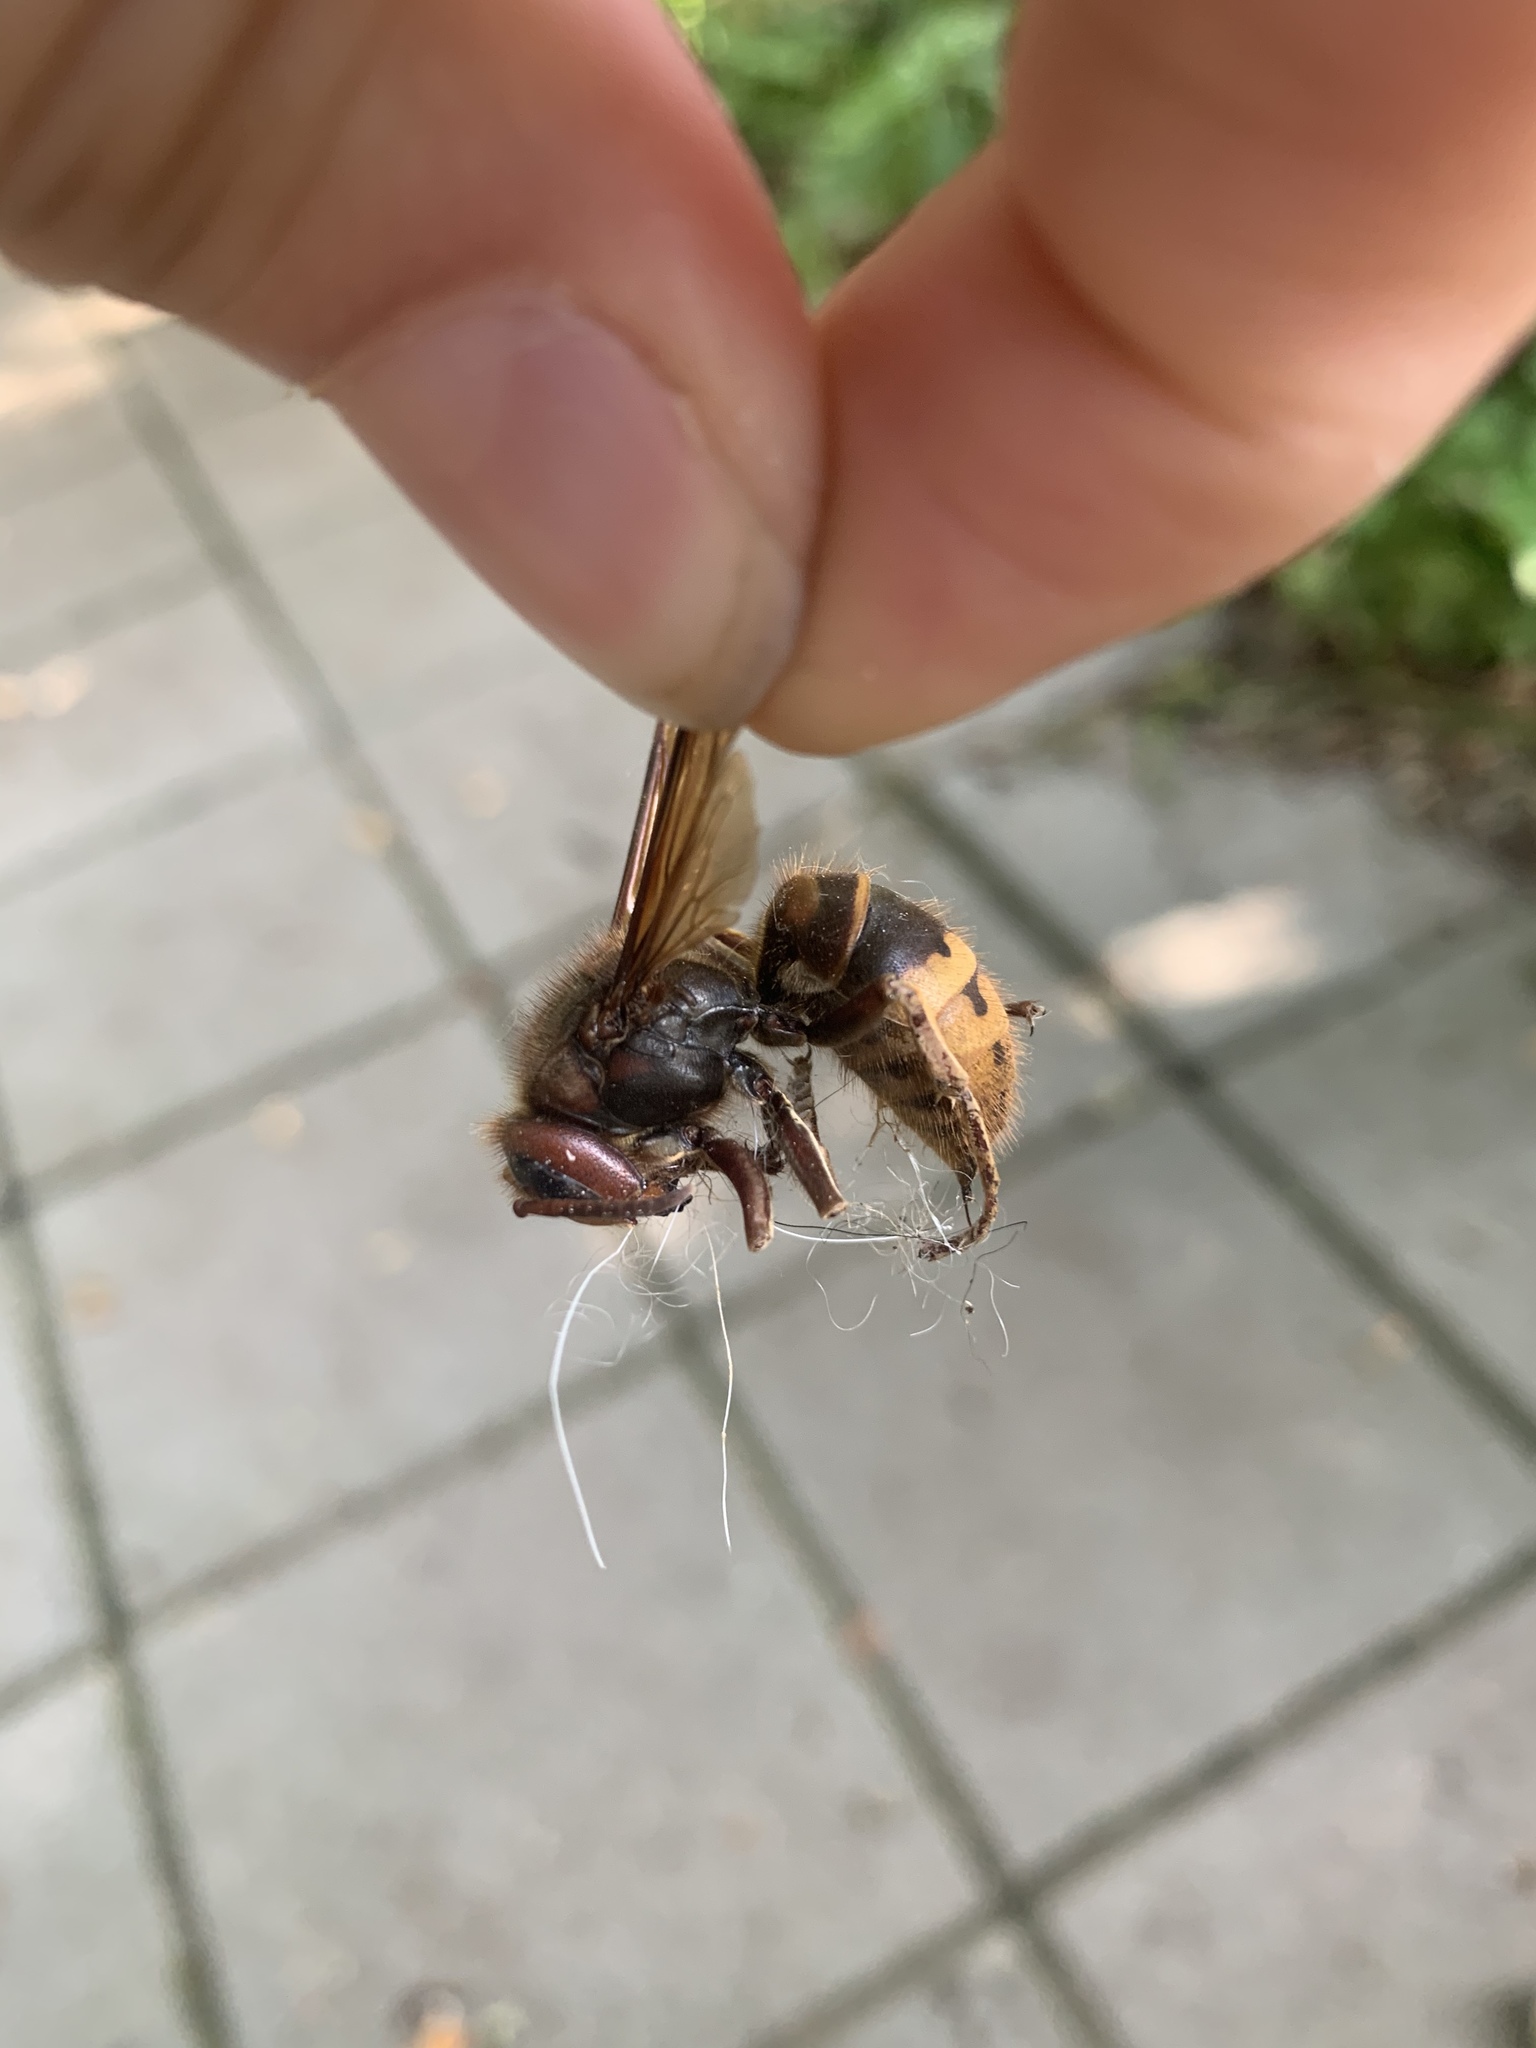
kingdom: Animalia
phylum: Arthropoda
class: Insecta
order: Hymenoptera
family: Vespidae
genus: Vespa
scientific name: Vespa crabro
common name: Hornet
